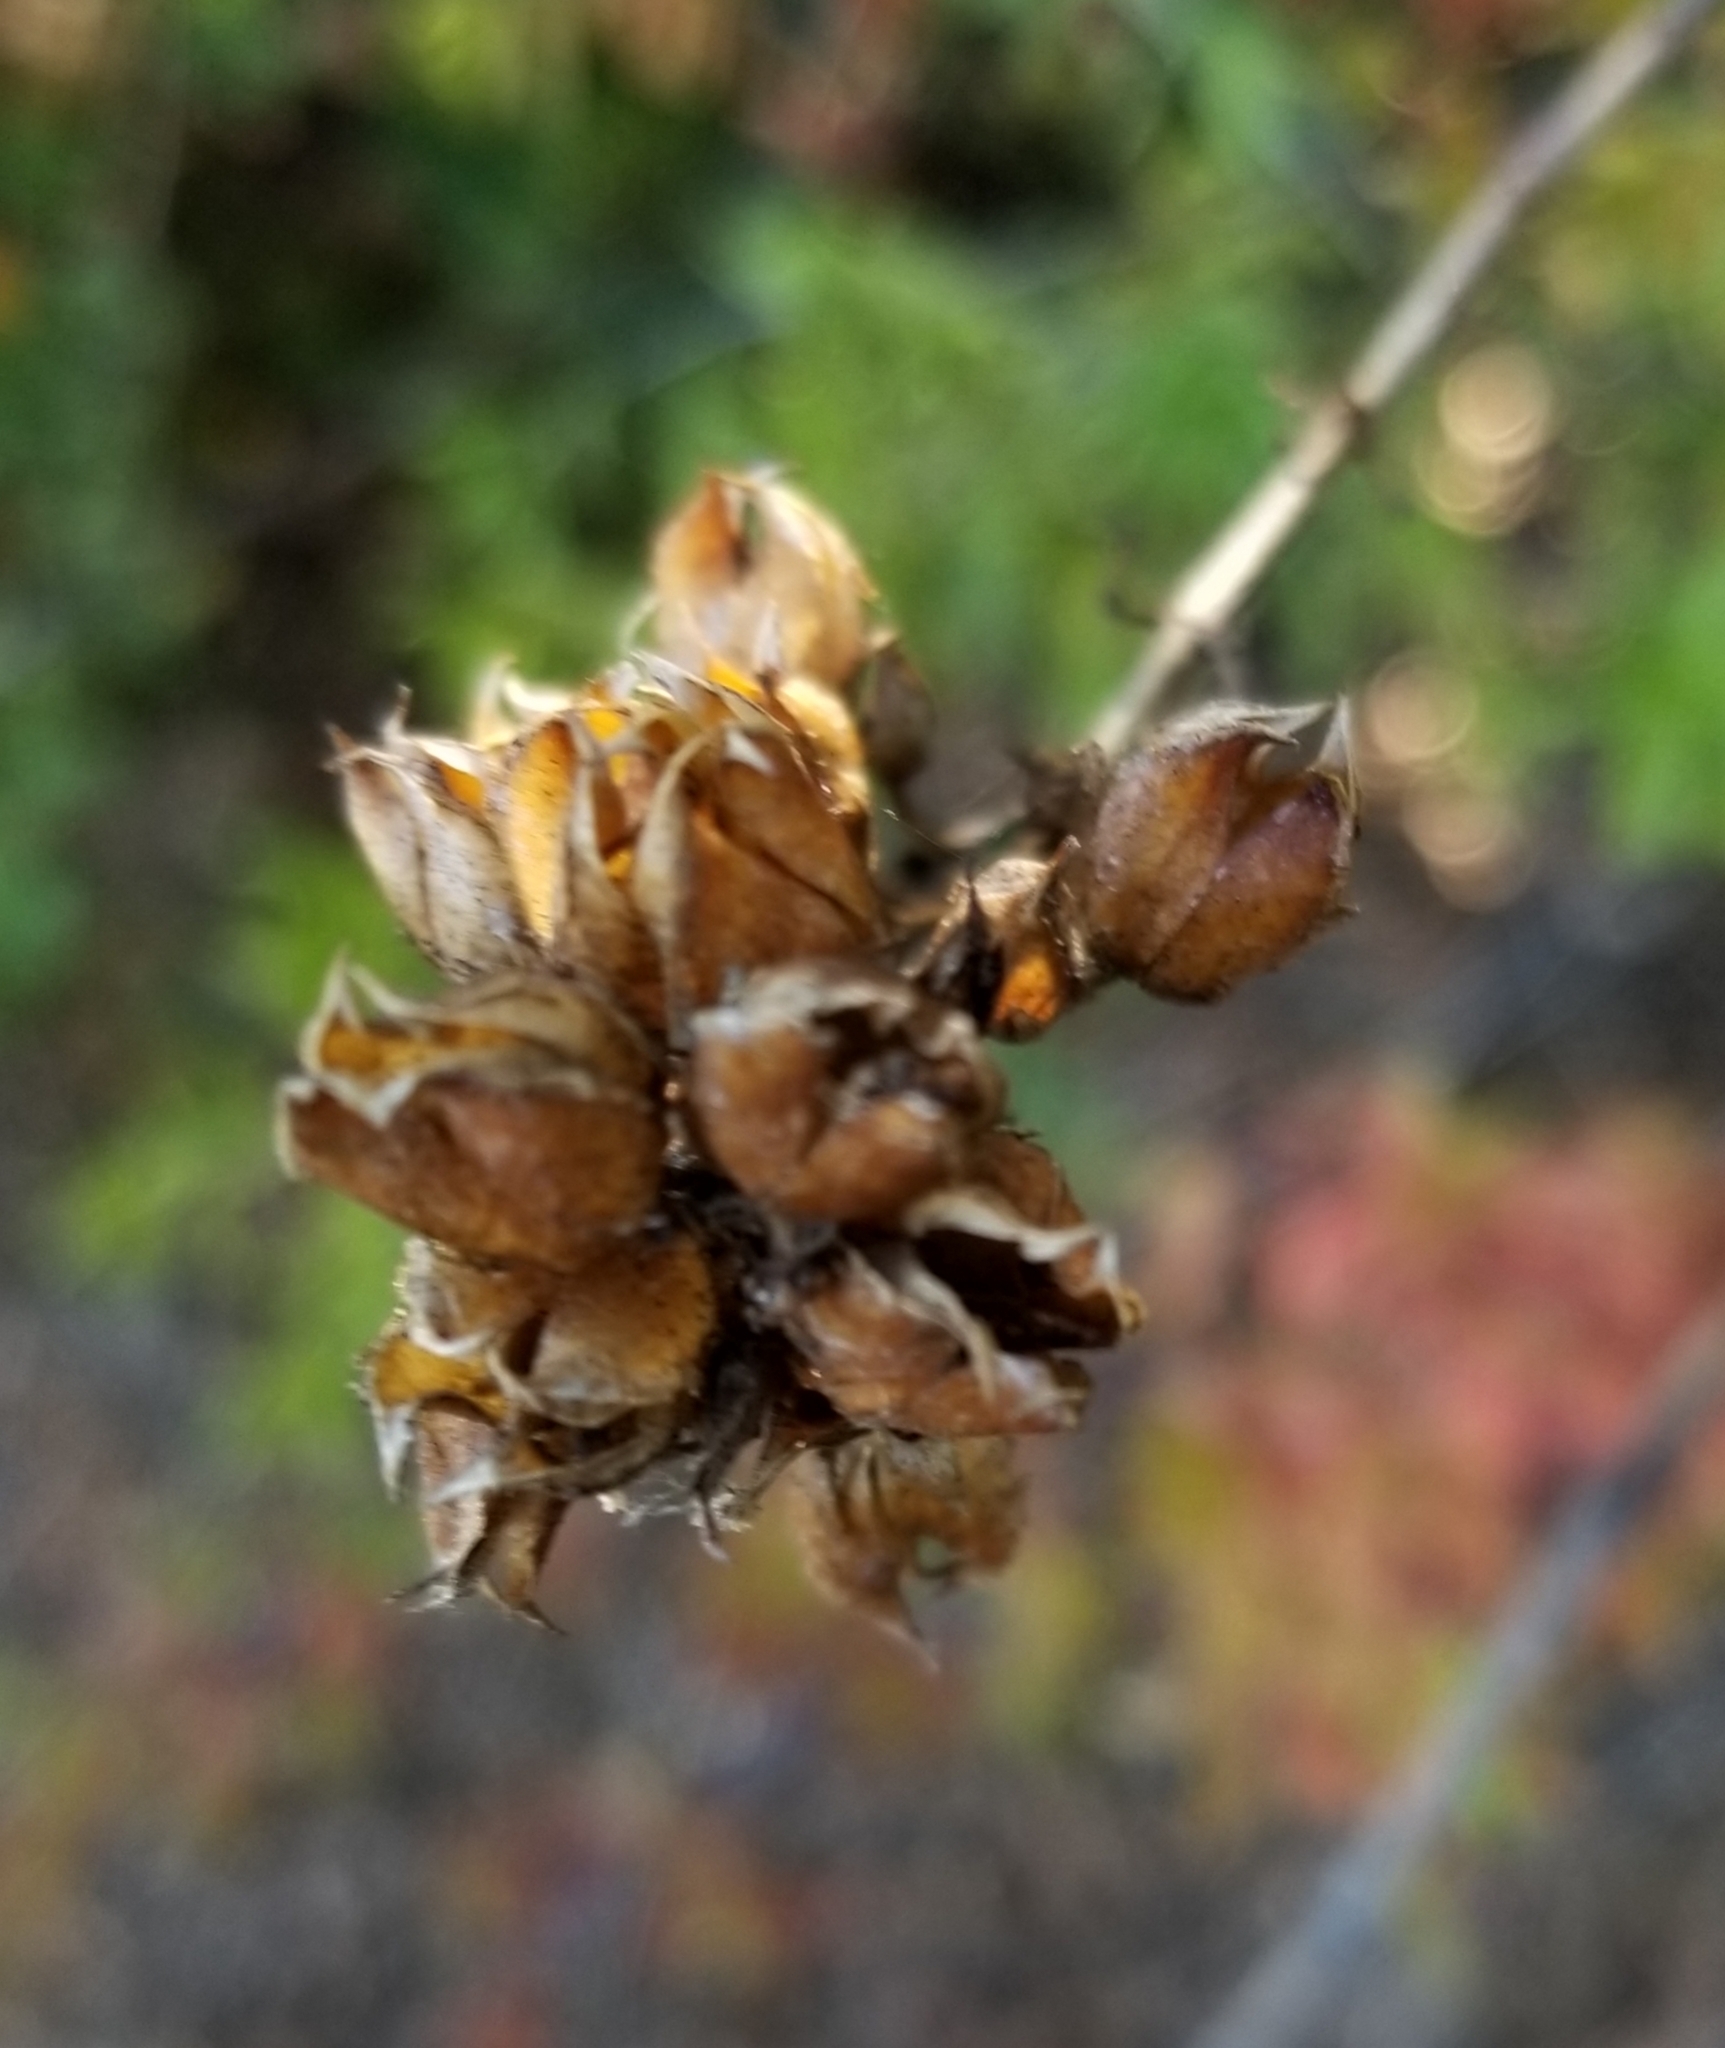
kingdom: Plantae
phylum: Tracheophyta
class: Magnoliopsida
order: Lamiales
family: Plantaginaceae
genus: Keckiella
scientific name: Keckiella ternata
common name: Scarlet keckiella
